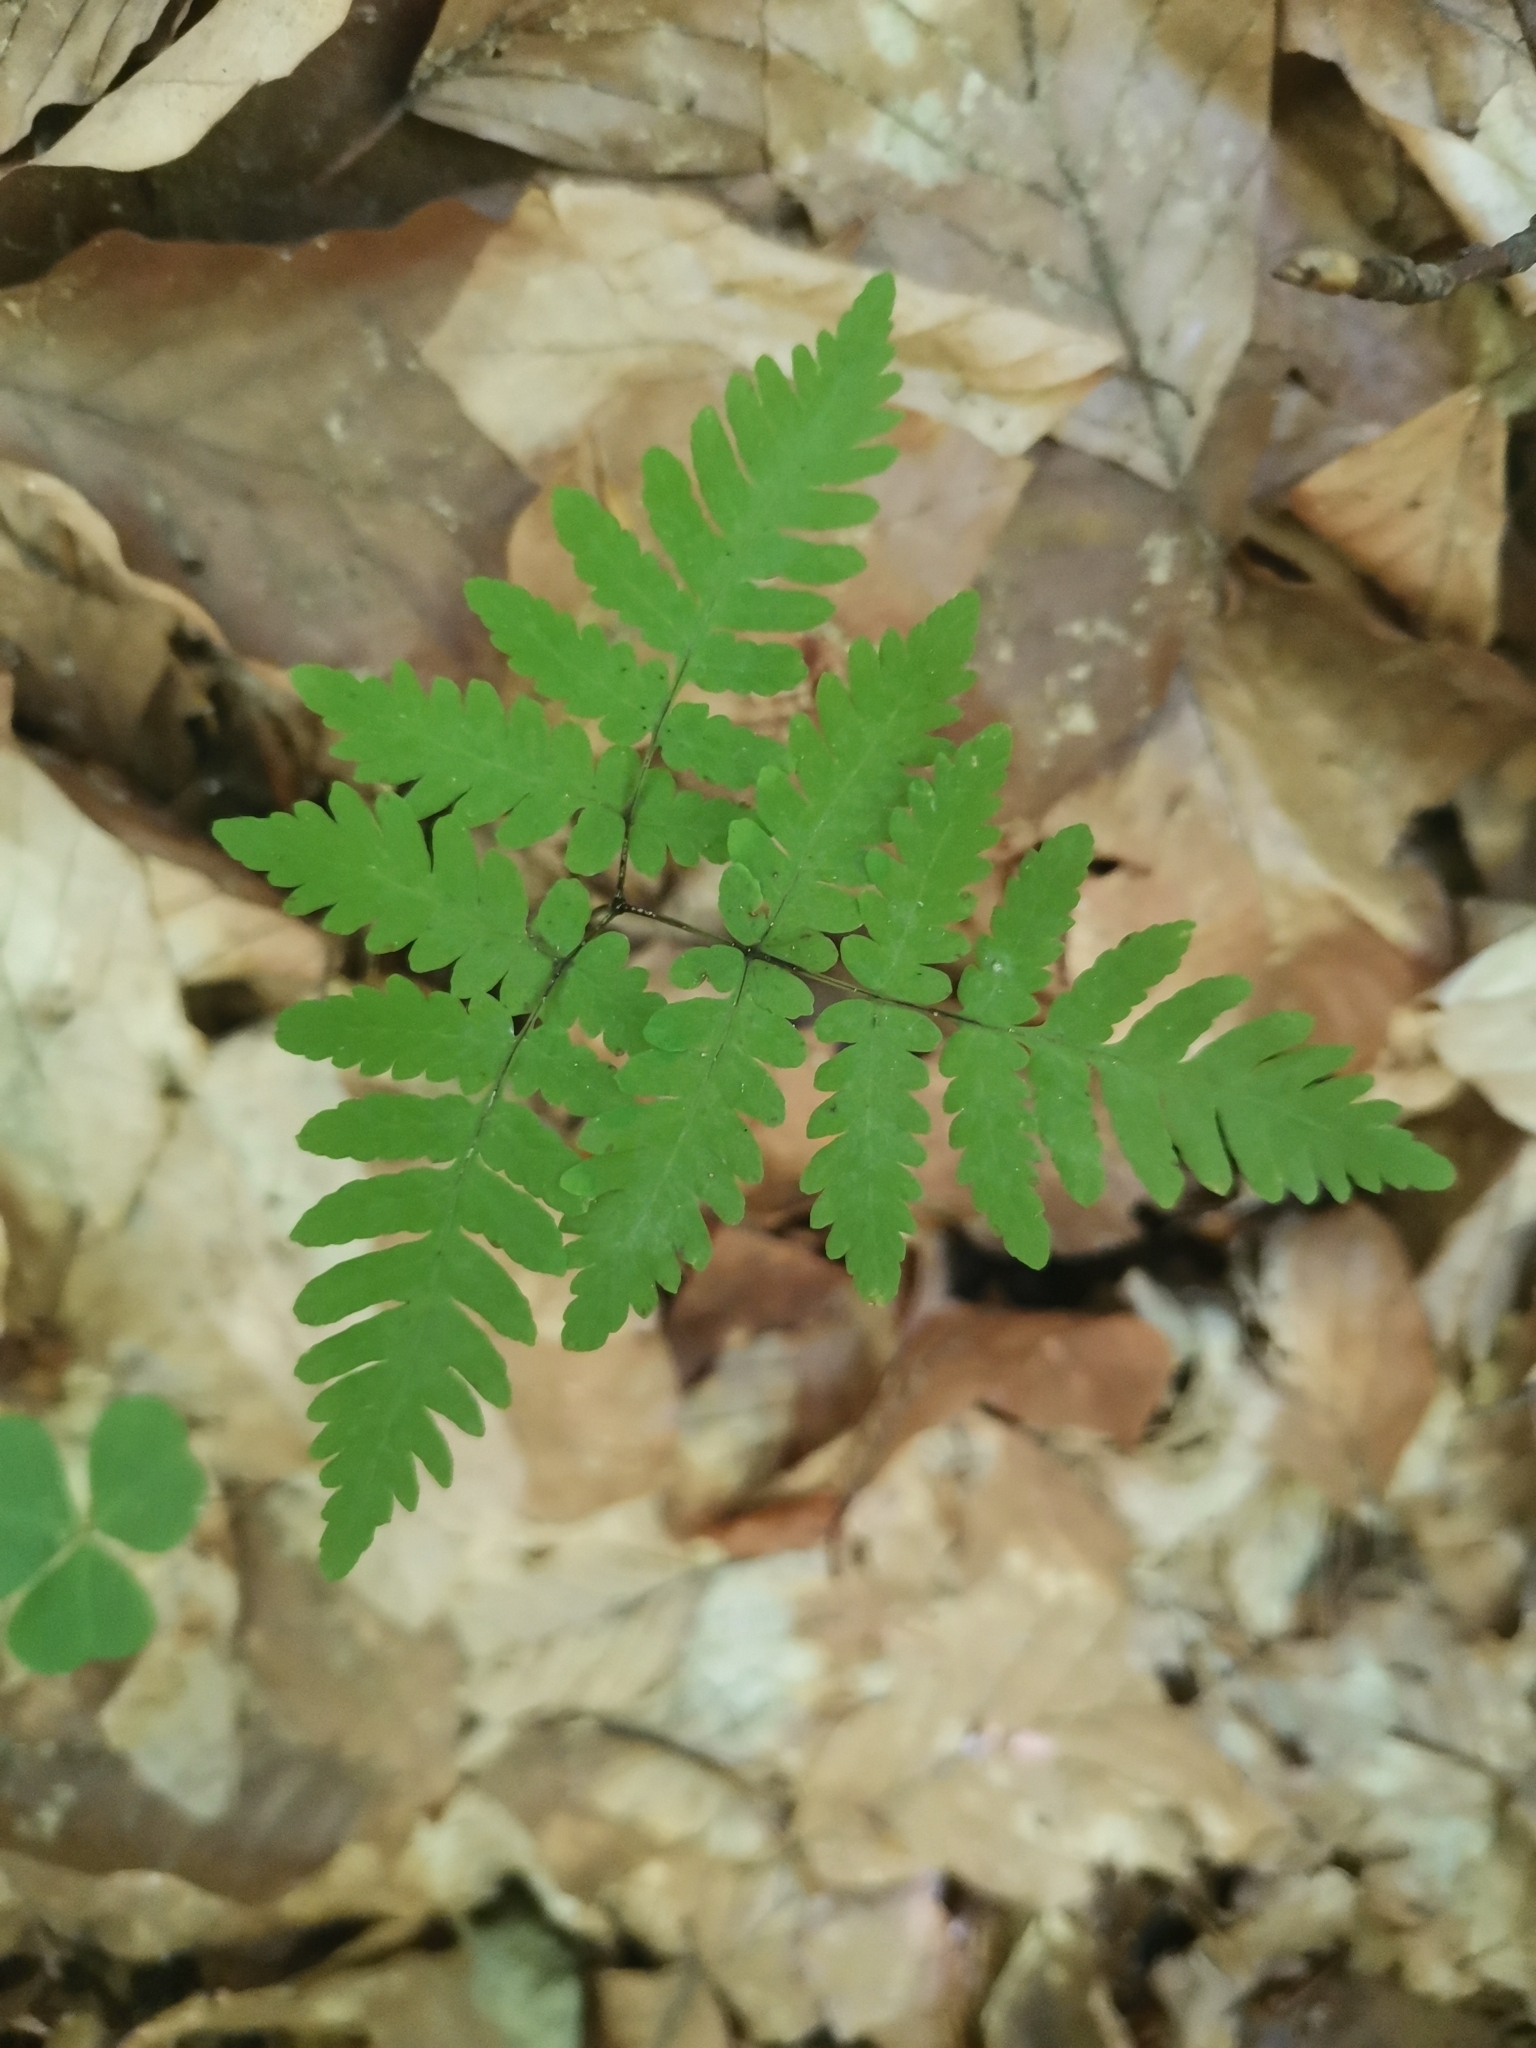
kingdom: Plantae
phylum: Tracheophyta
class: Polypodiopsida
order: Polypodiales
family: Cystopteridaceae
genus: Gymnocarpium
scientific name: Gymnocarpium dryopteris
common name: Oak fern
